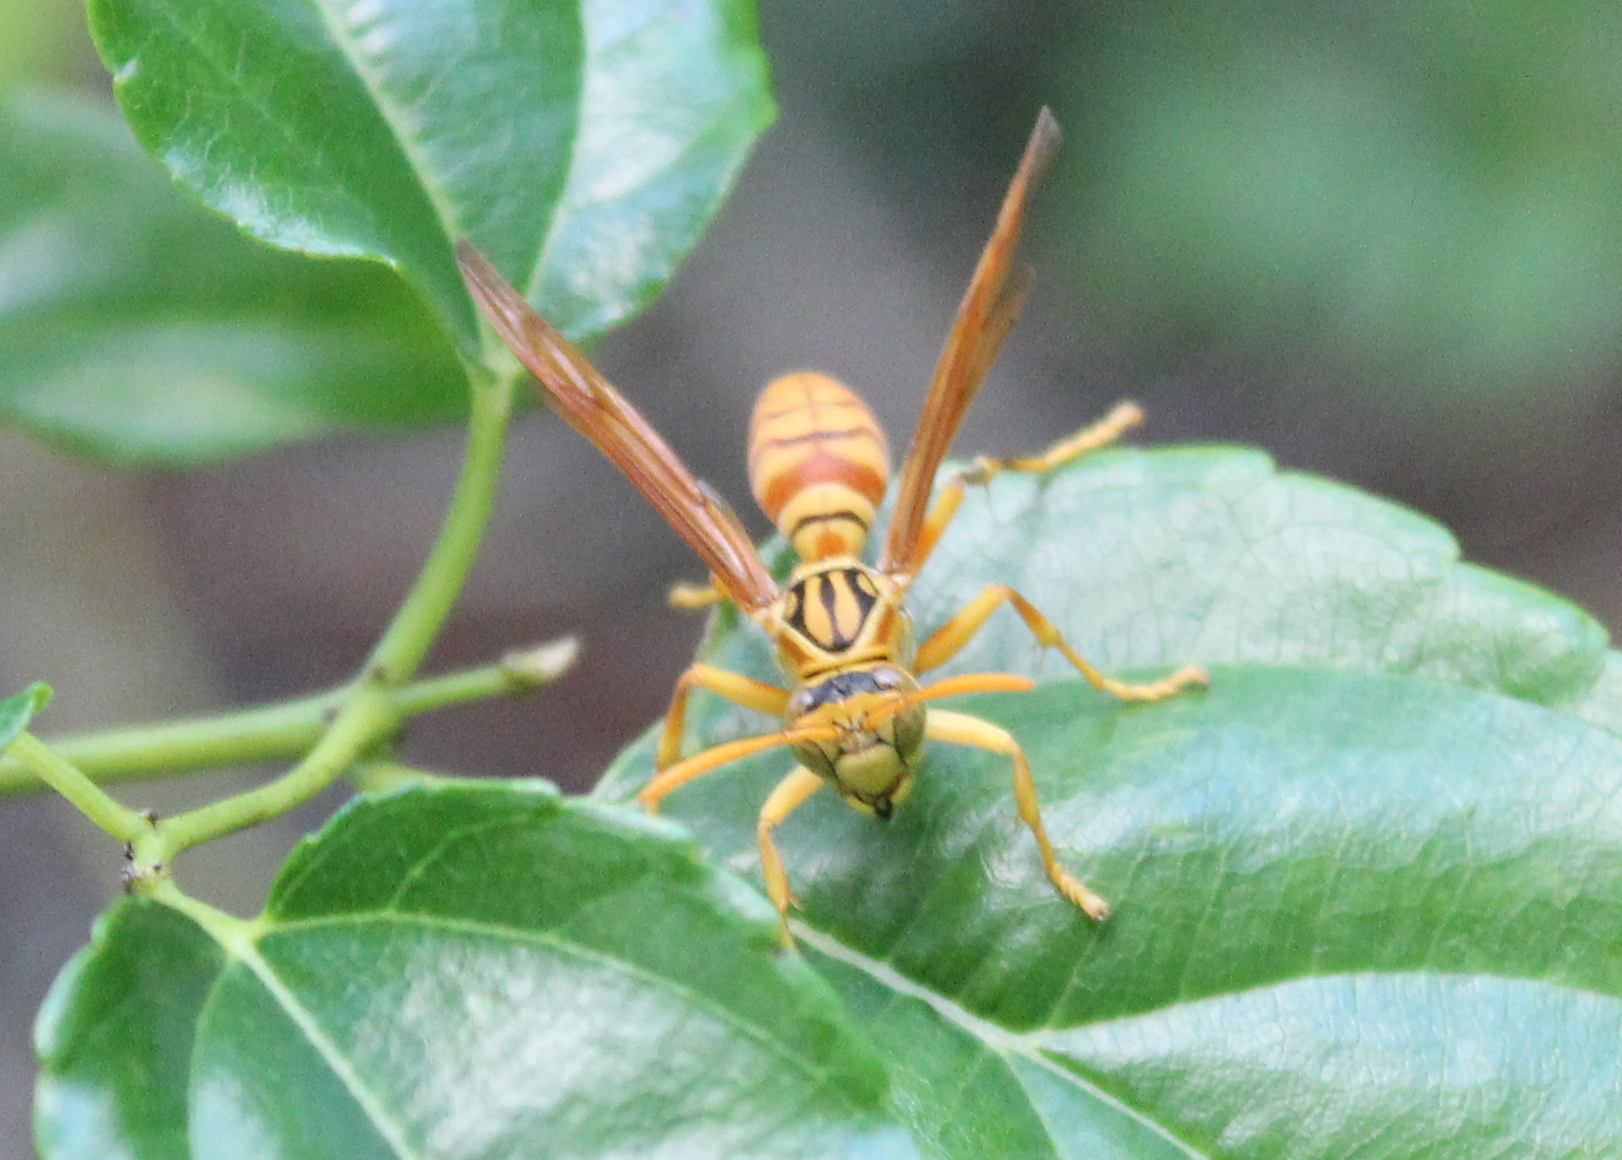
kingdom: Animalia
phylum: Arthropoda
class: Insecta
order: Hymenoptera
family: Eumenidae
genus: Polistes
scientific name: Polistes olivaceus
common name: Paper wasp
